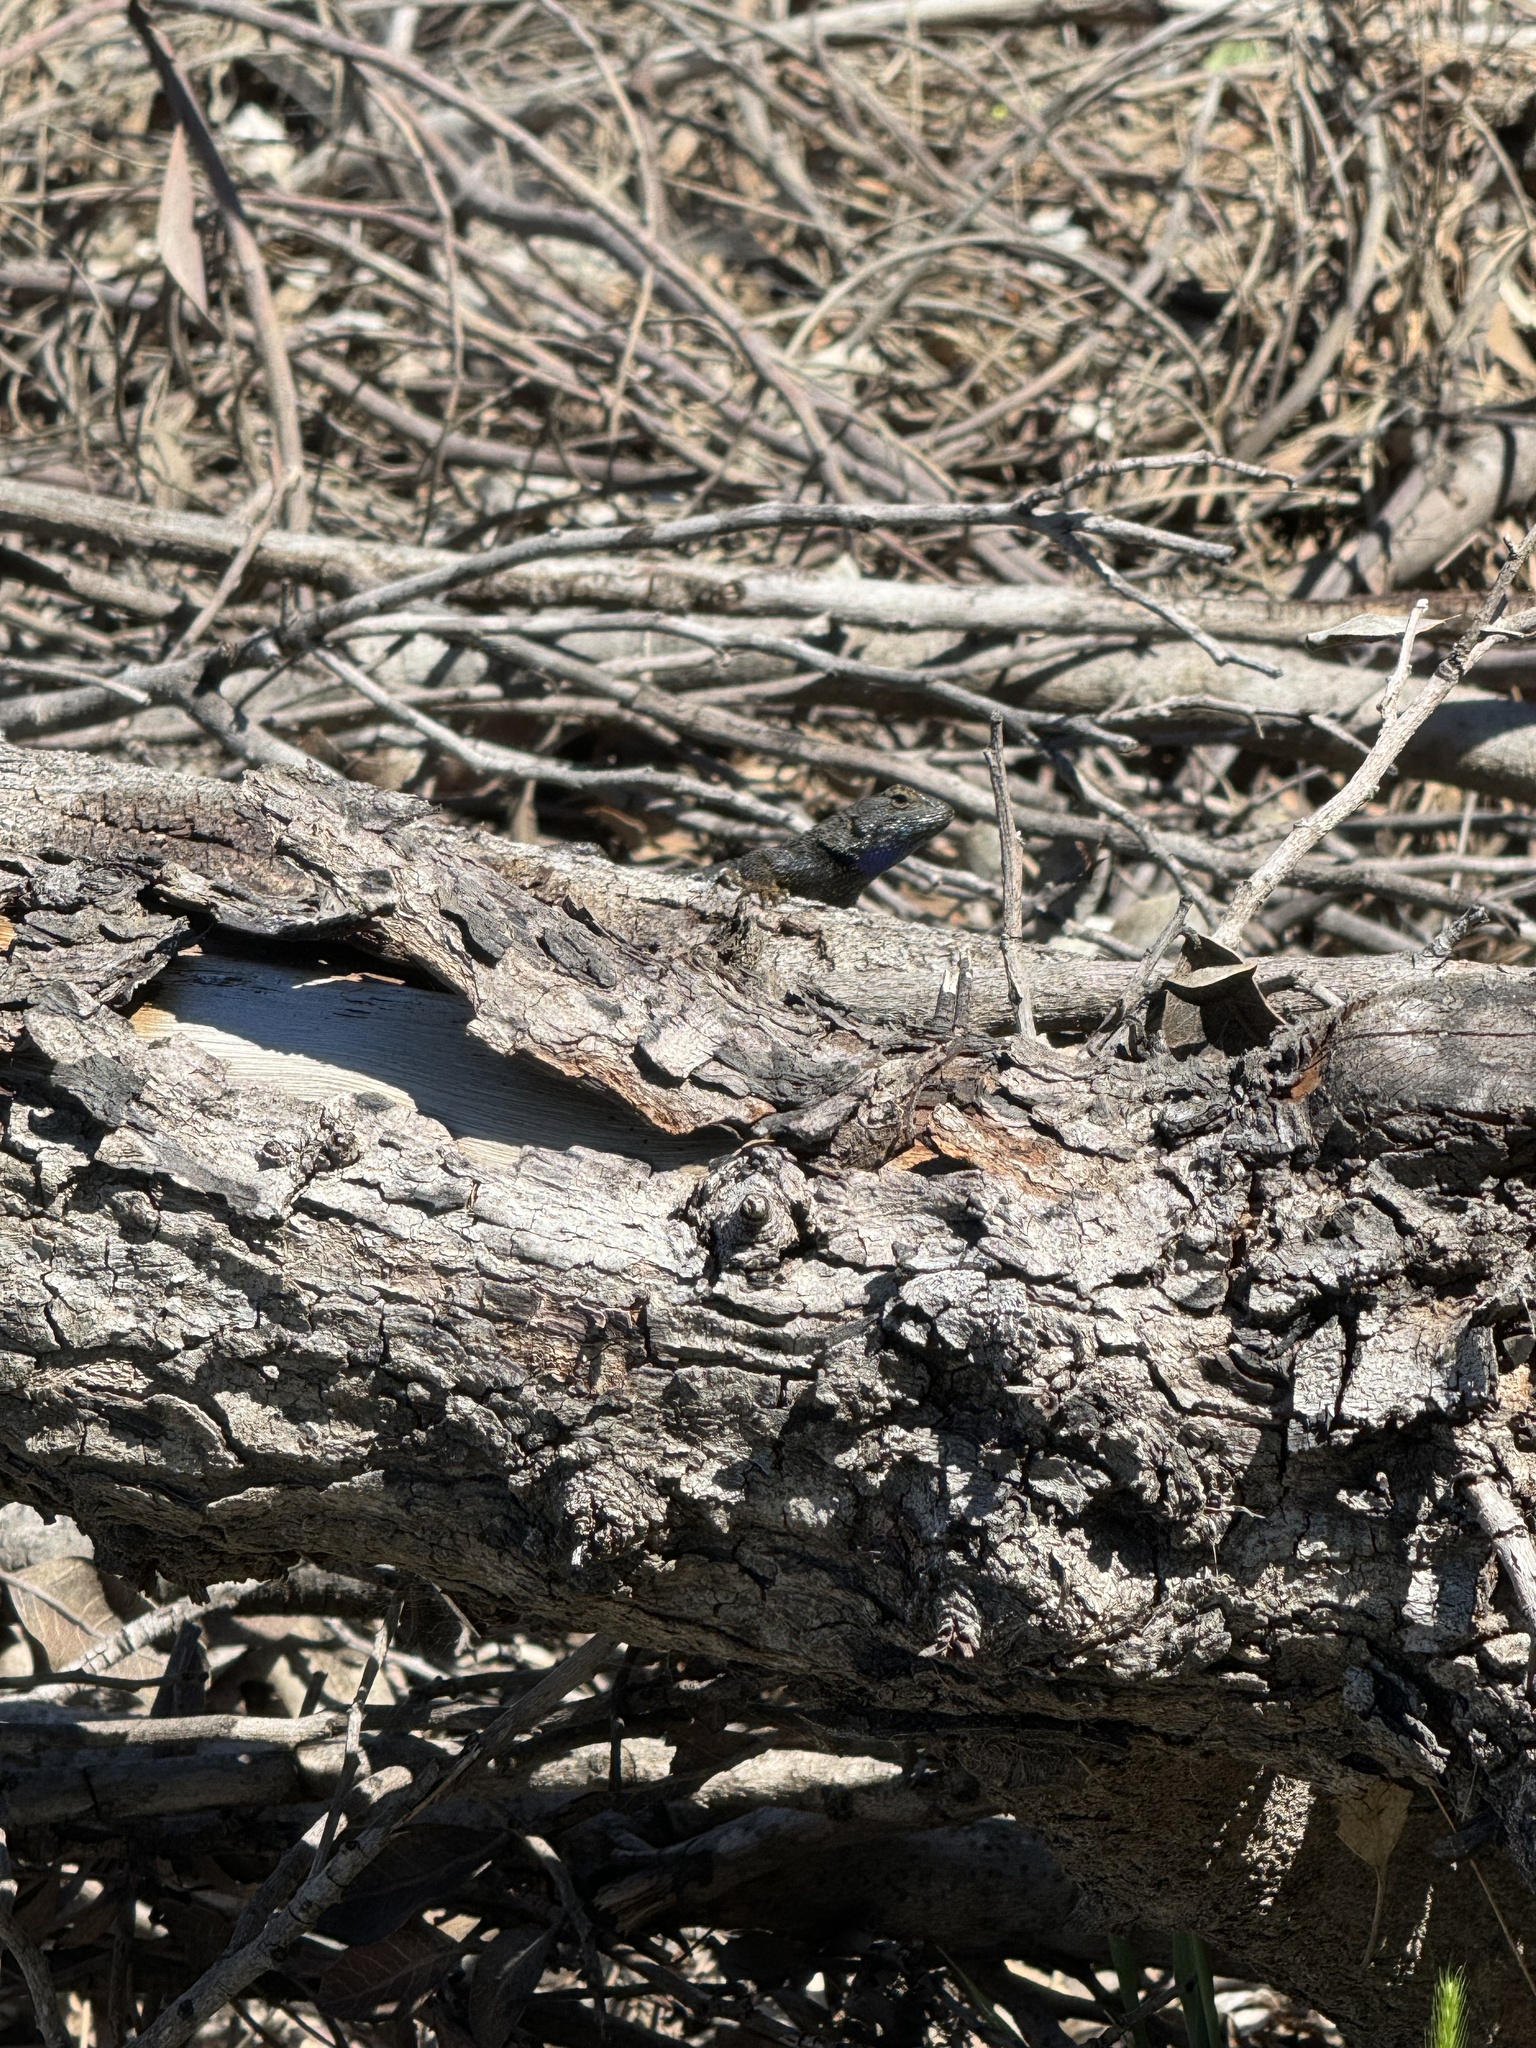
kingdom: Animalia
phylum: Chordata
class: Squamata
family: Phrynosomatidae
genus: Sceloporus
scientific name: Sceloporus occidentalis
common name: Western fence lizard
